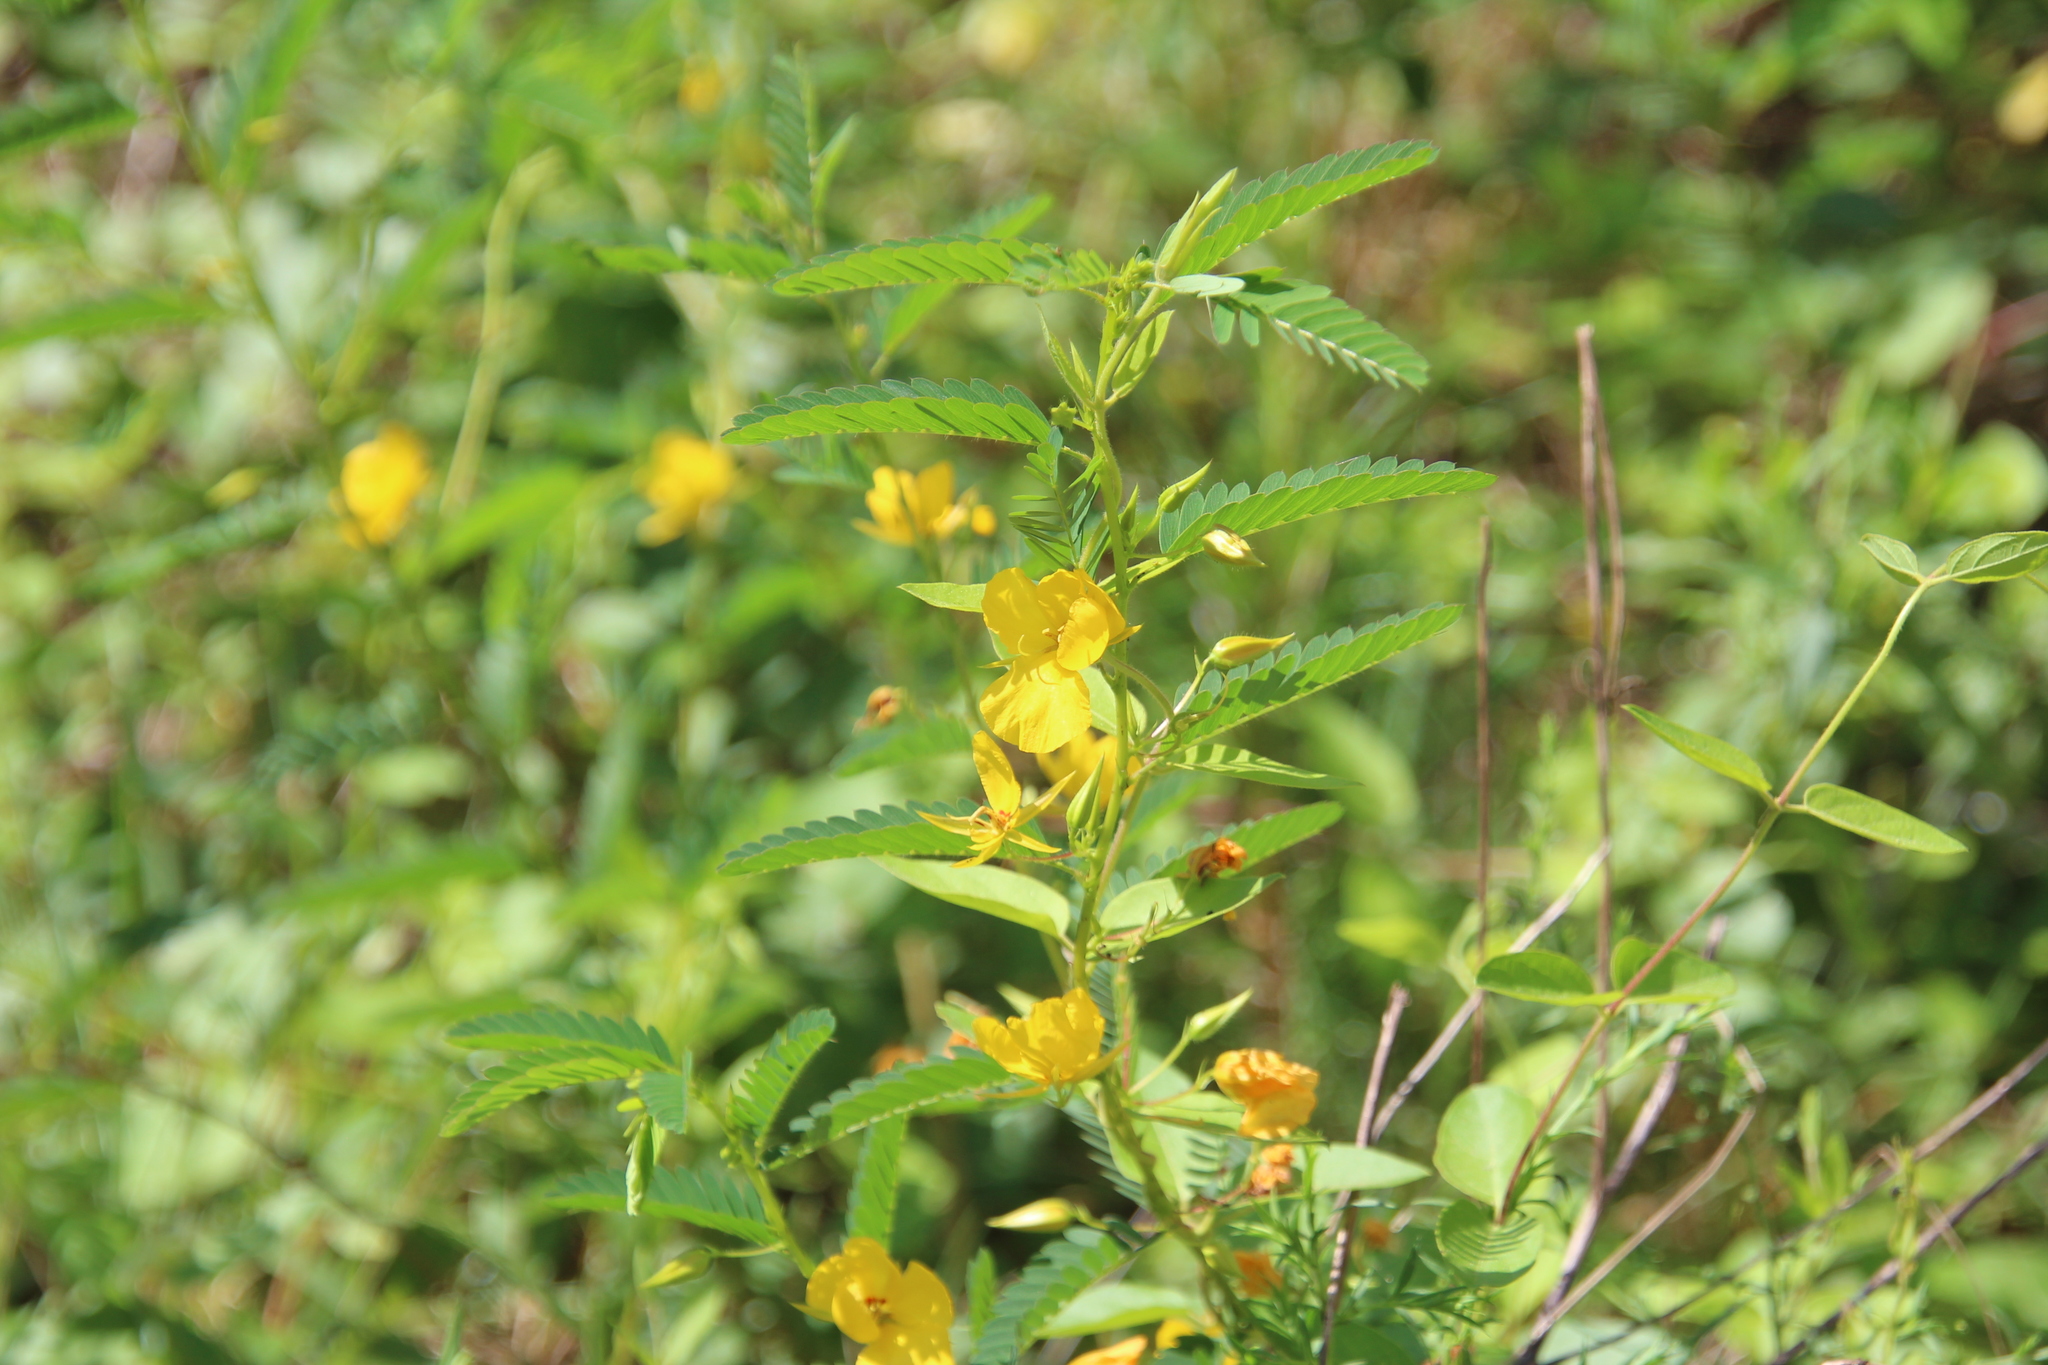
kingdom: Plantae
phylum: Tracheophyta
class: Magnoliopsida
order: Fabales
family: Fabaceae
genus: Chamaecrista
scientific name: Chamaecrista fasciculata
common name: Golden cassia
